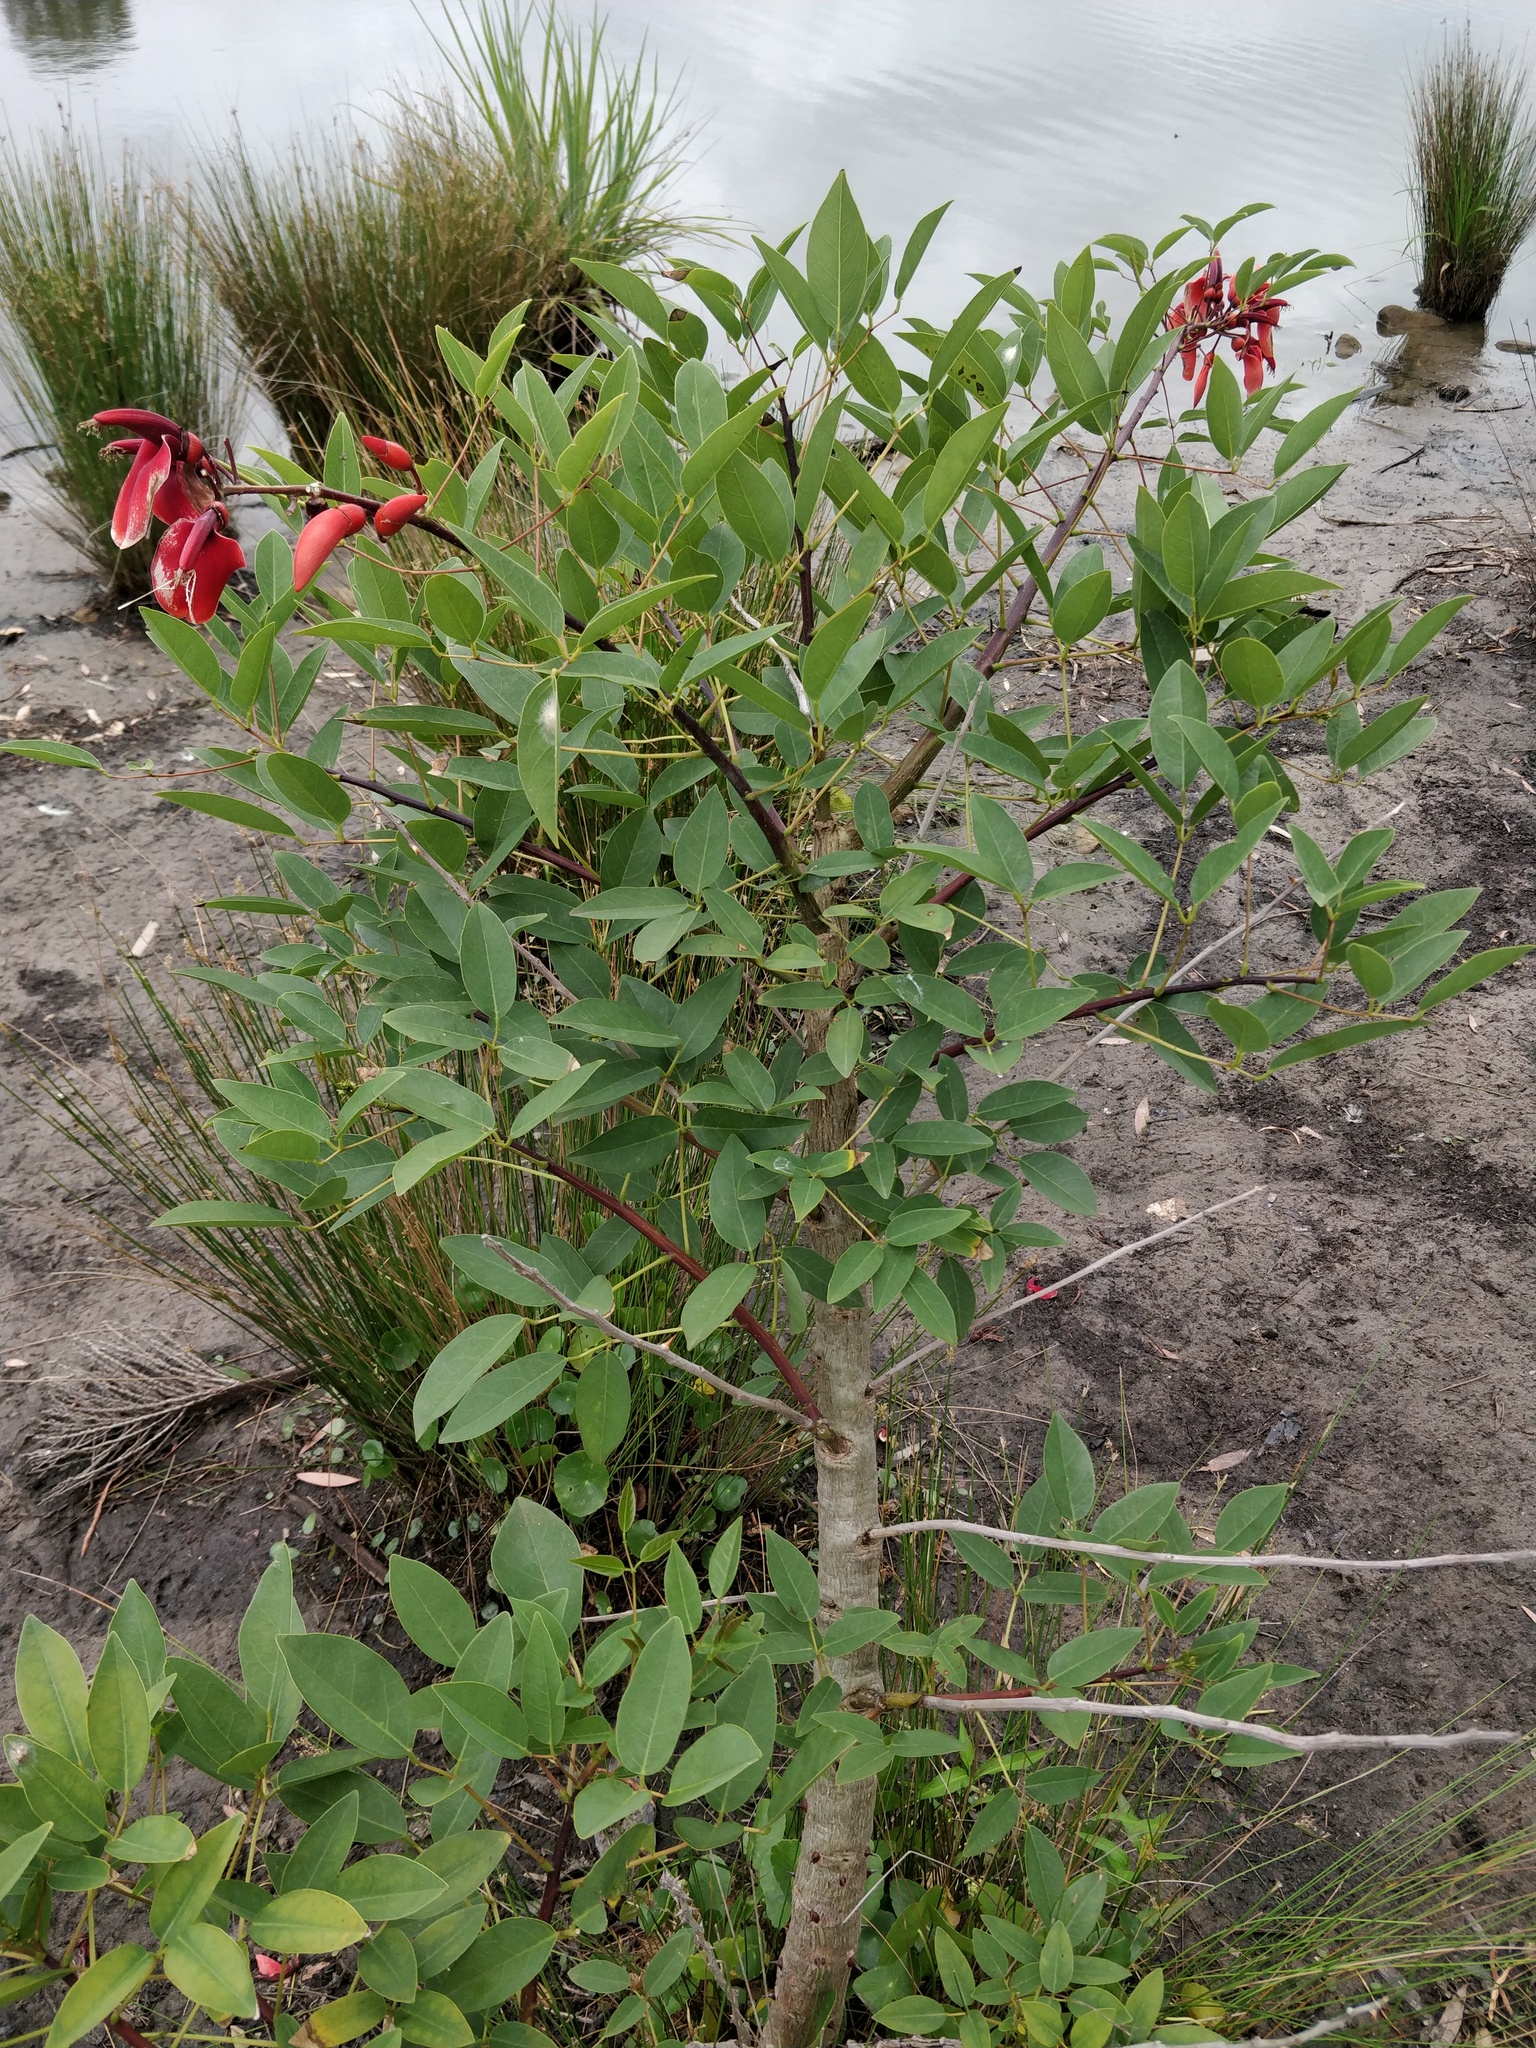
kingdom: Plantae
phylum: Tracheophyta
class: Magnoliopsida
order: Fabales
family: Fabaceae
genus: Erythrina
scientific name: Erythrina crista-galli
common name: Cockspur coral tree
